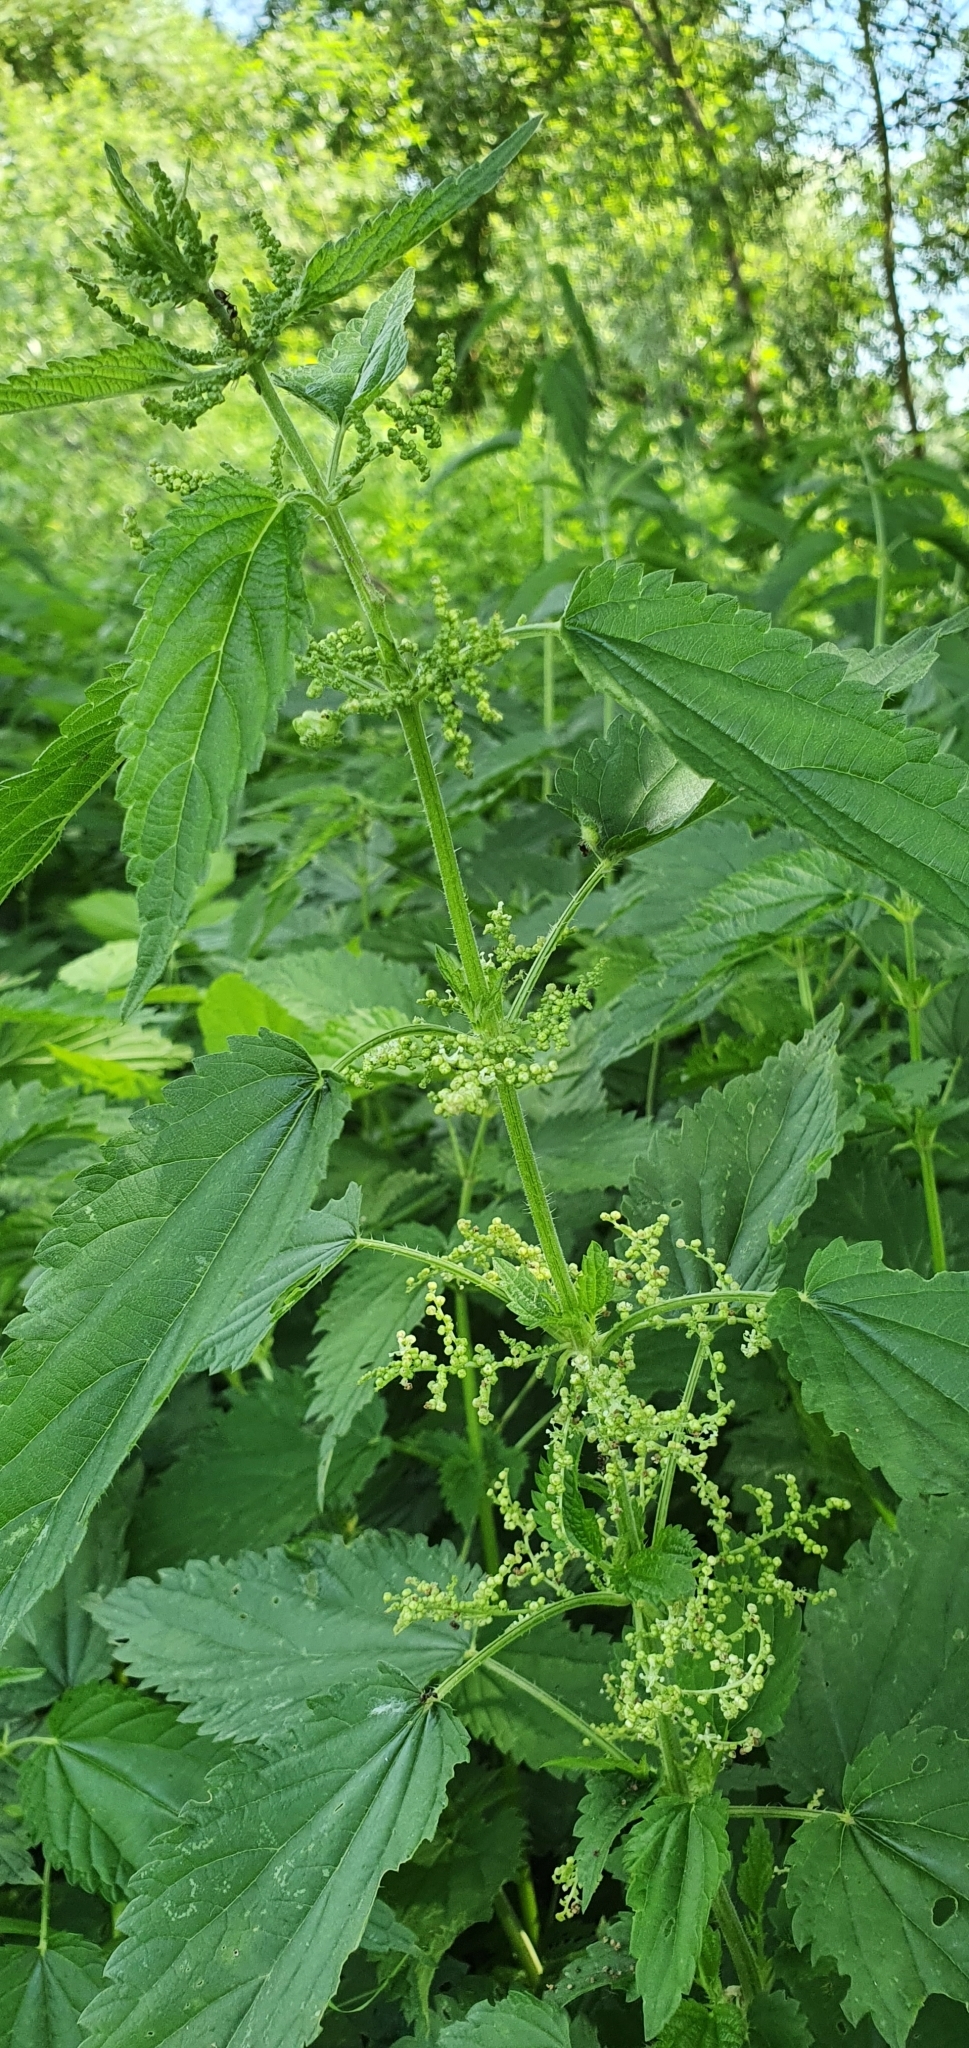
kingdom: Plantae
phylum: Tracheophyta
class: Magnoliopsida
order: Rosales
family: Urticaceae
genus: Urtica
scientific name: Urtica dioica
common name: Common nettle
